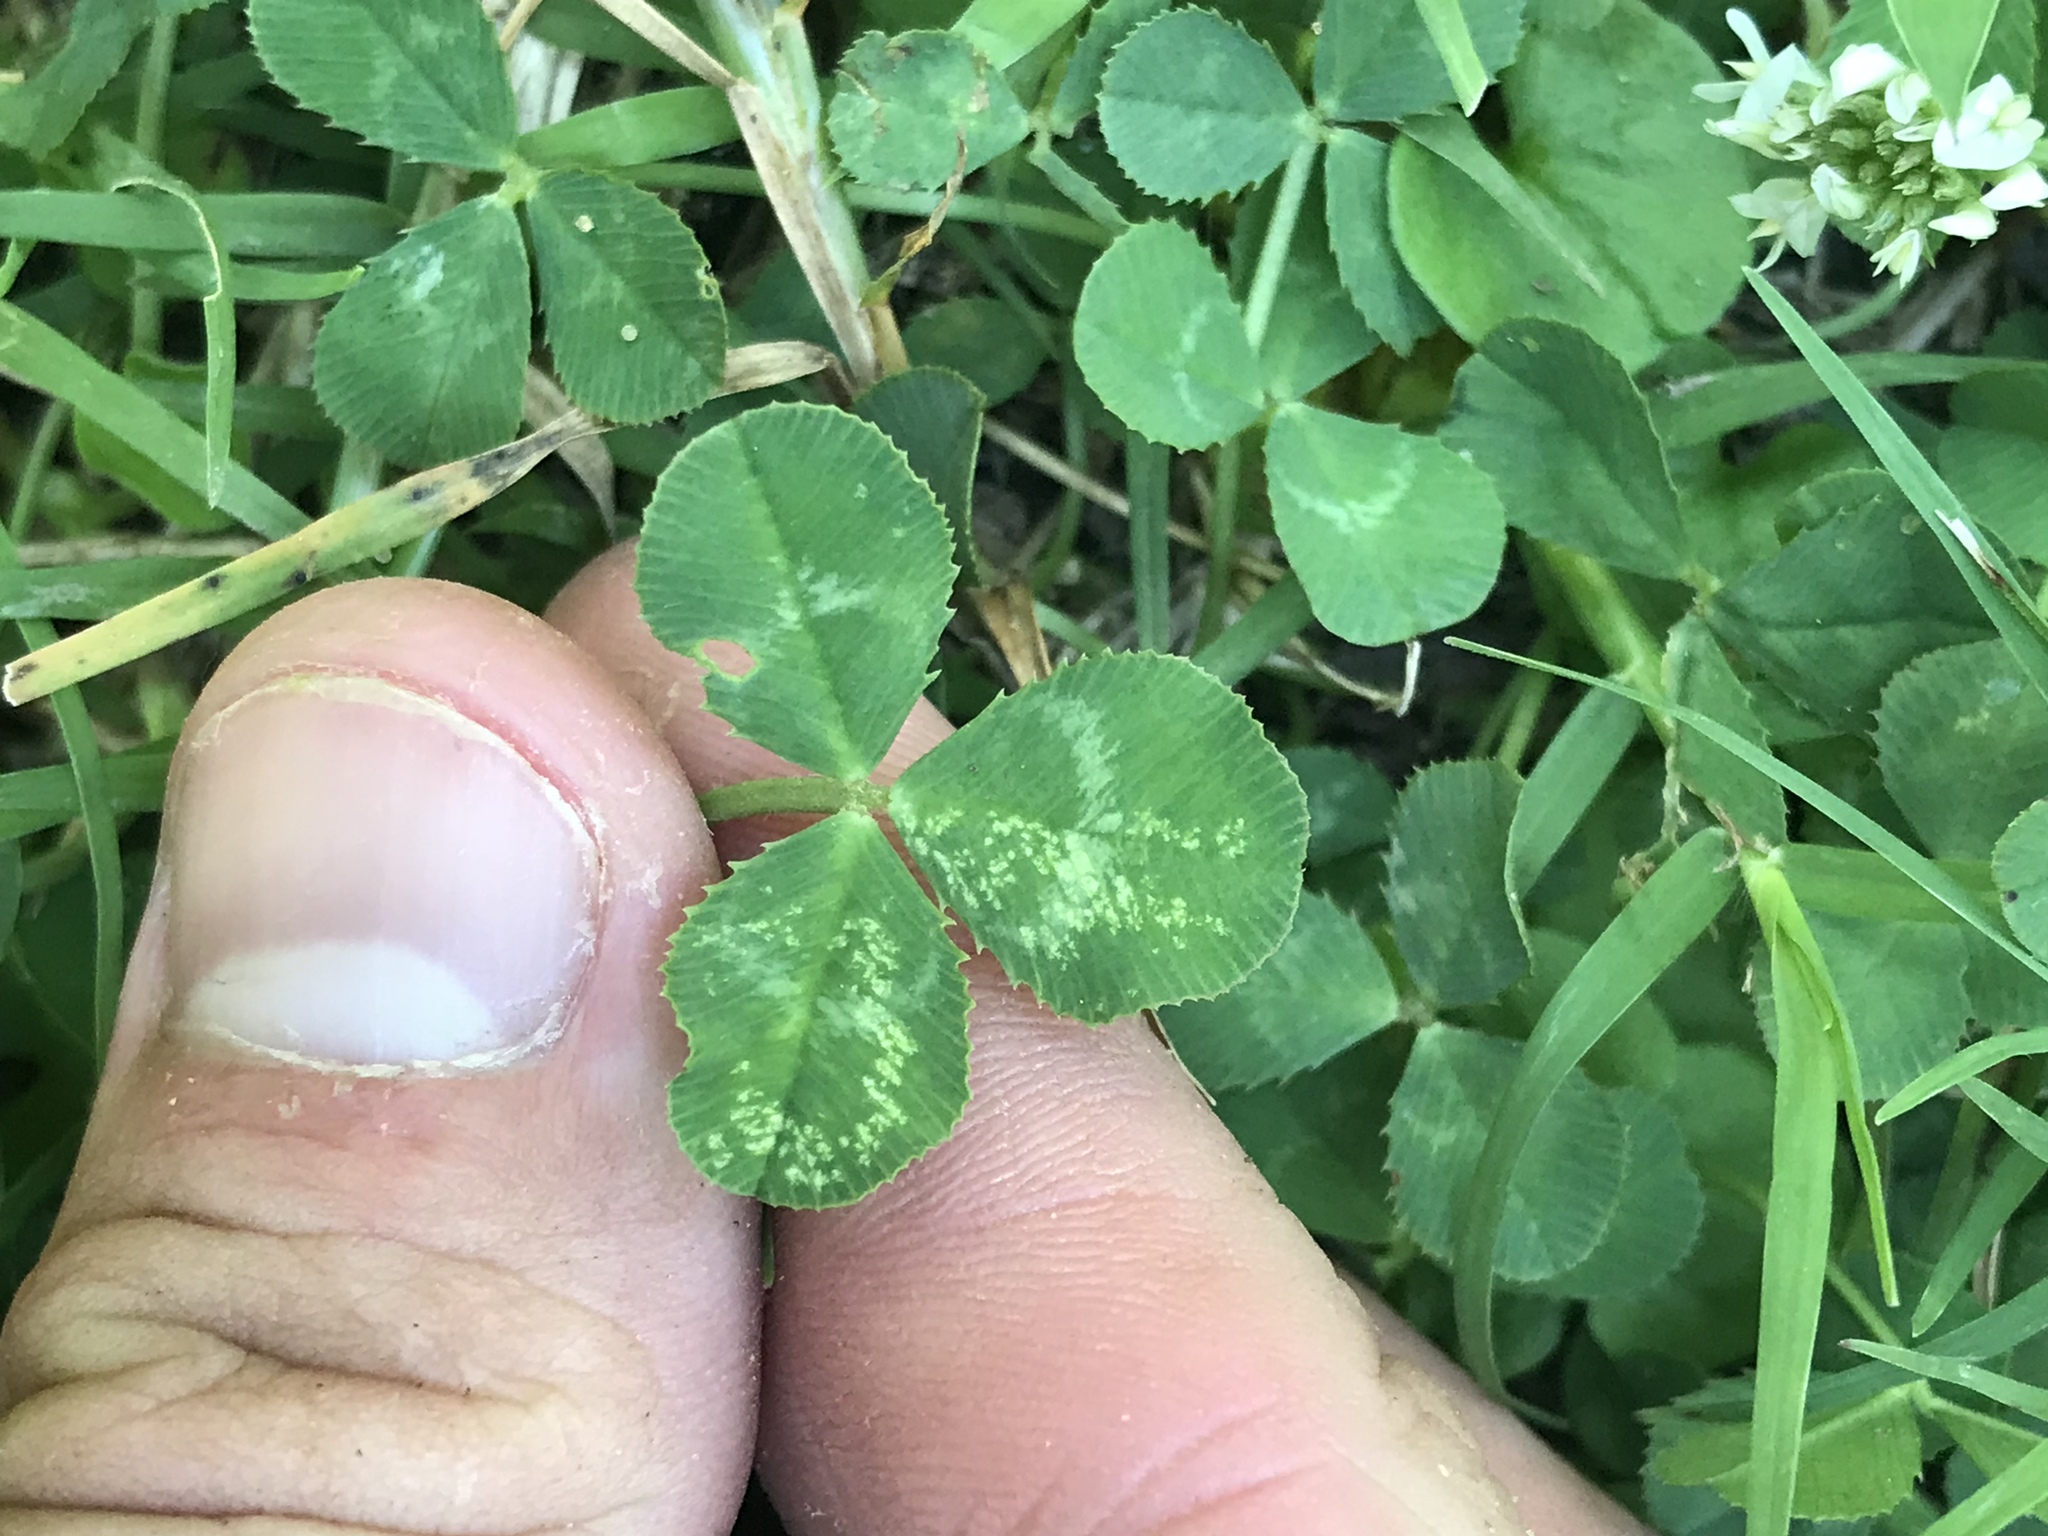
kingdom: Plantae
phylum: Tracheophyta
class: Magnoliopsida
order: Fabales
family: Fabaceae
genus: Trifolium
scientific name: Trifolium repens
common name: White clover
